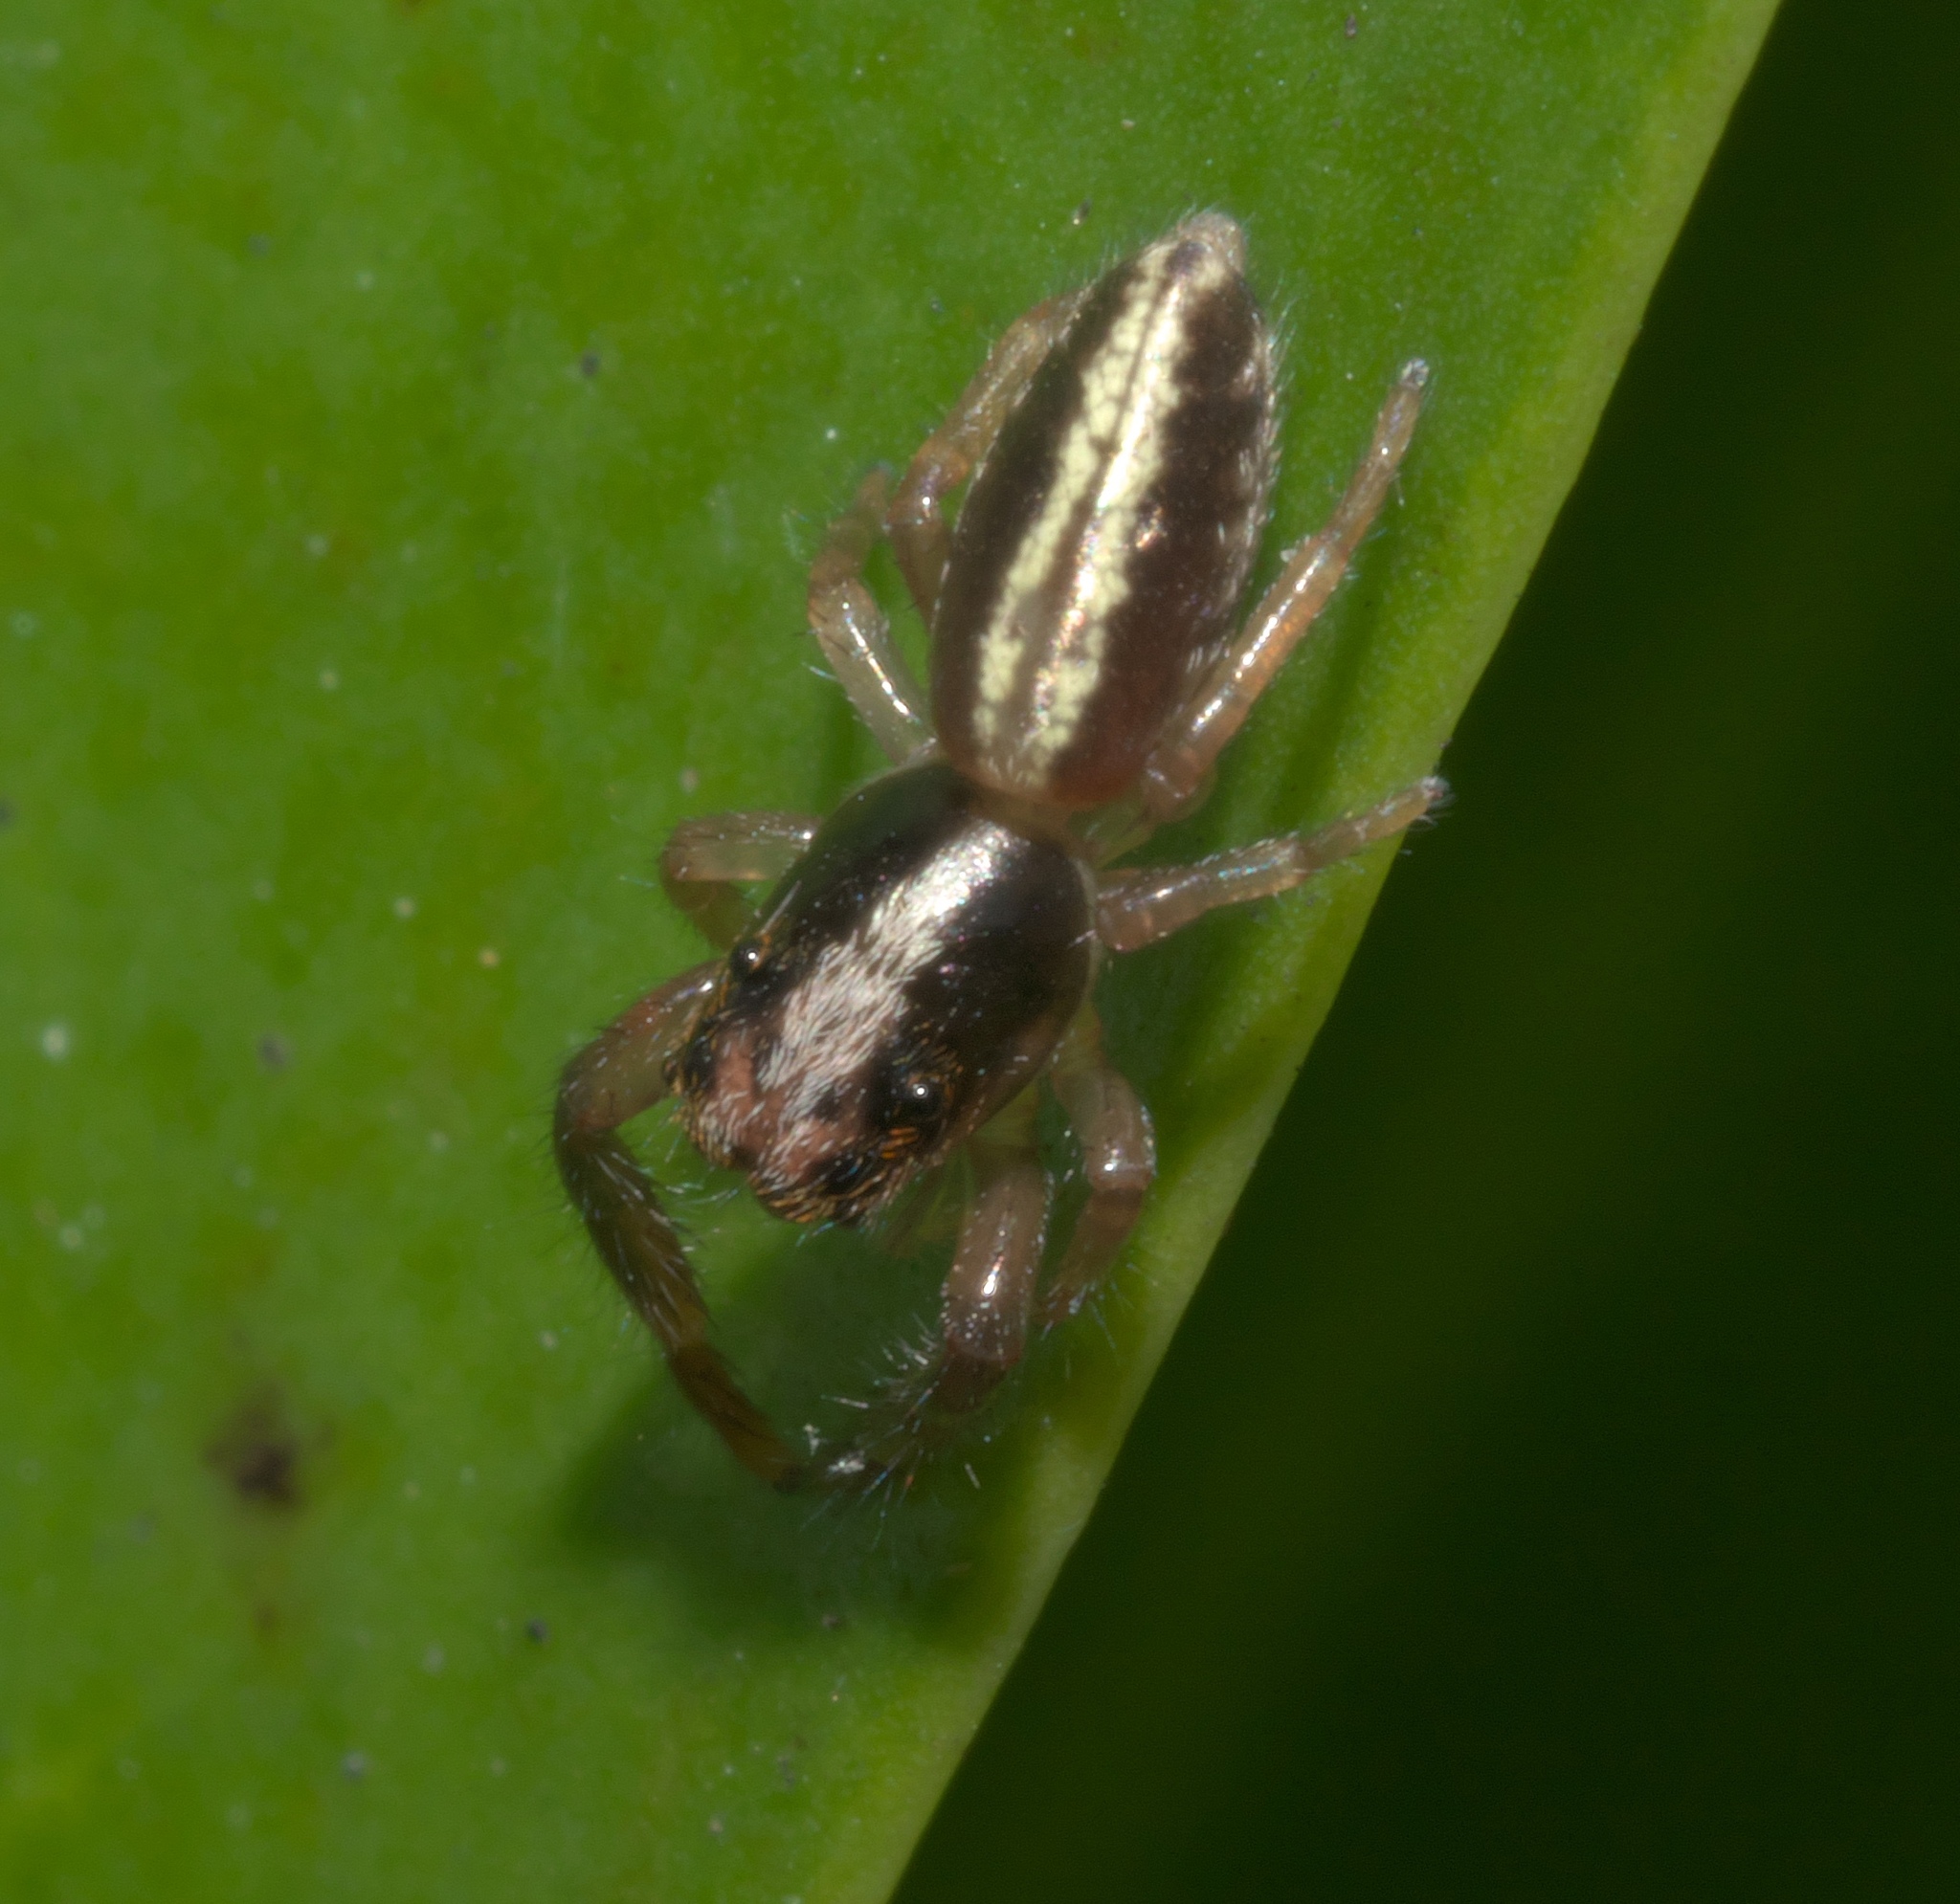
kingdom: Animalia
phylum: Arthropoda
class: Arachnida
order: Araneae
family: Salticidae
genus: Trite
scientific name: Trite planiceps
